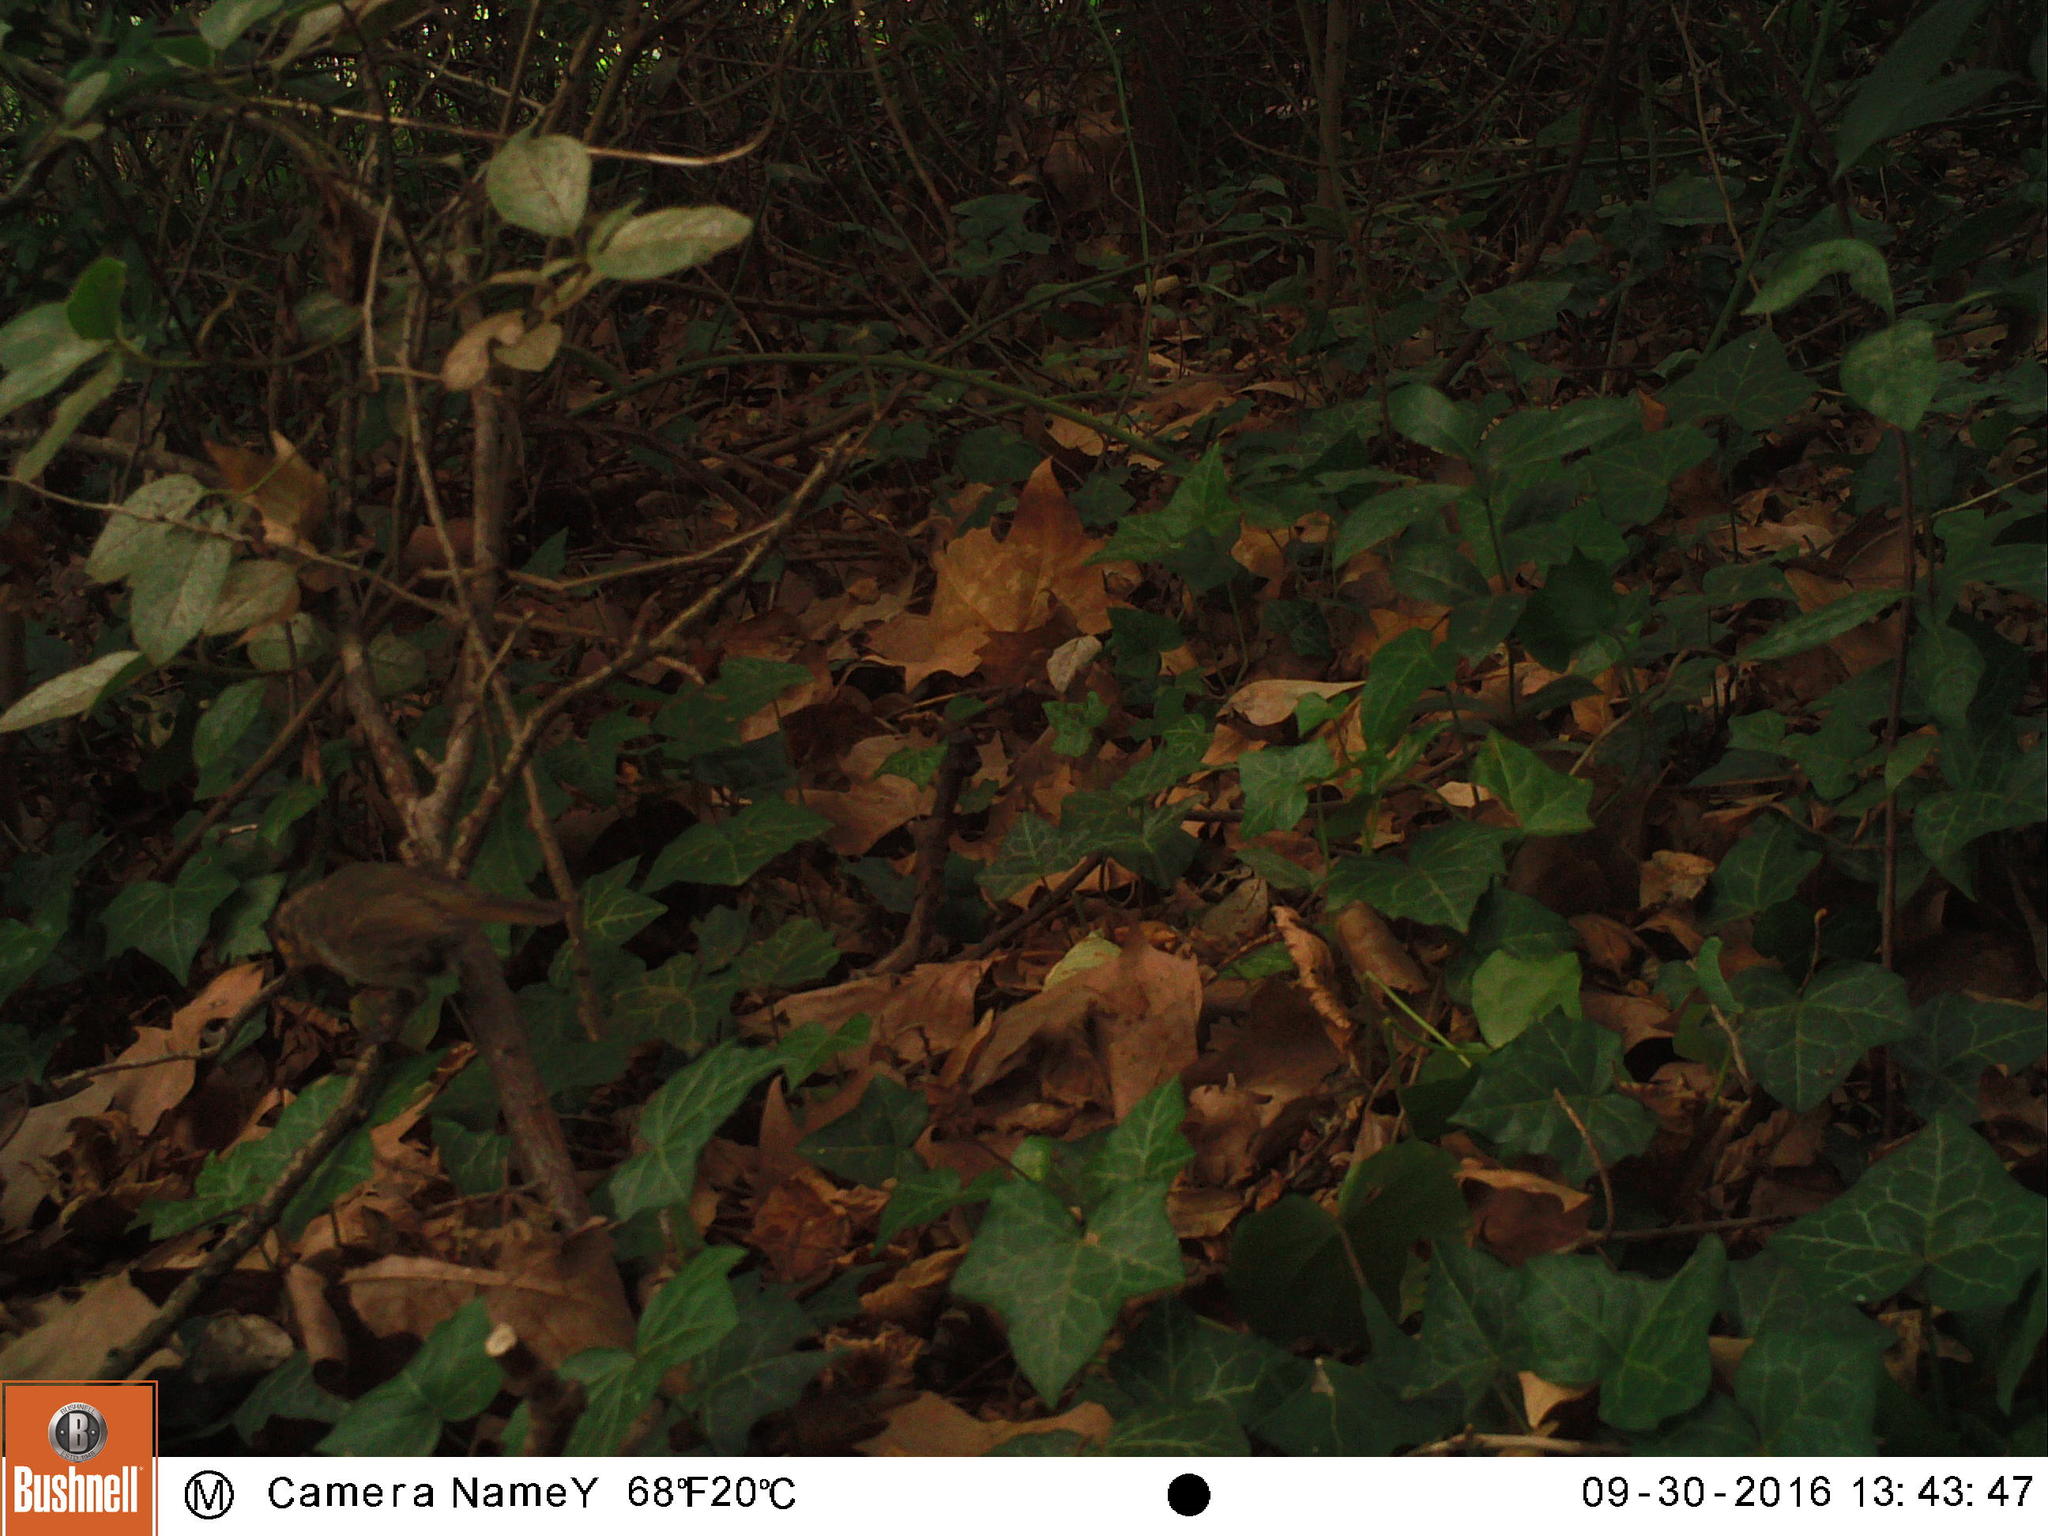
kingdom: Animalia
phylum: Chordata
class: Aves
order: Passeriformes
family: Muscicapidae
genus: Erithacus
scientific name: Erithacus rubecula
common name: European robin
